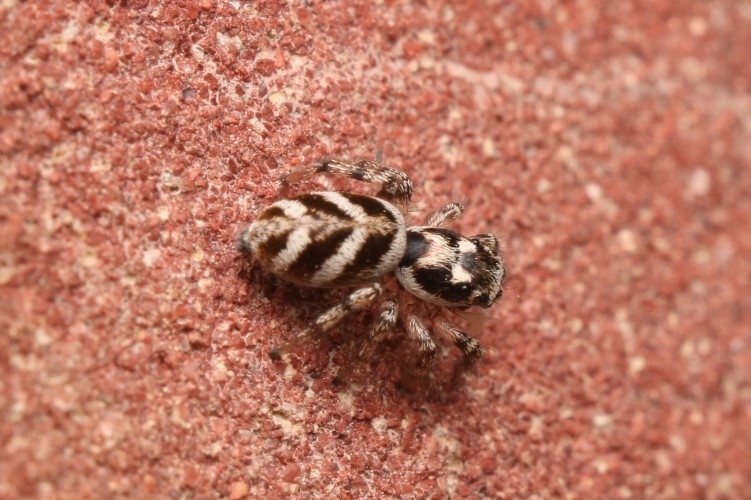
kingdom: Animalia
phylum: Arthropoda
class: Arachnida
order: Araneae
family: Salticidae
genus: Salticus
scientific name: Salticus scenicus
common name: Zebra jumper
